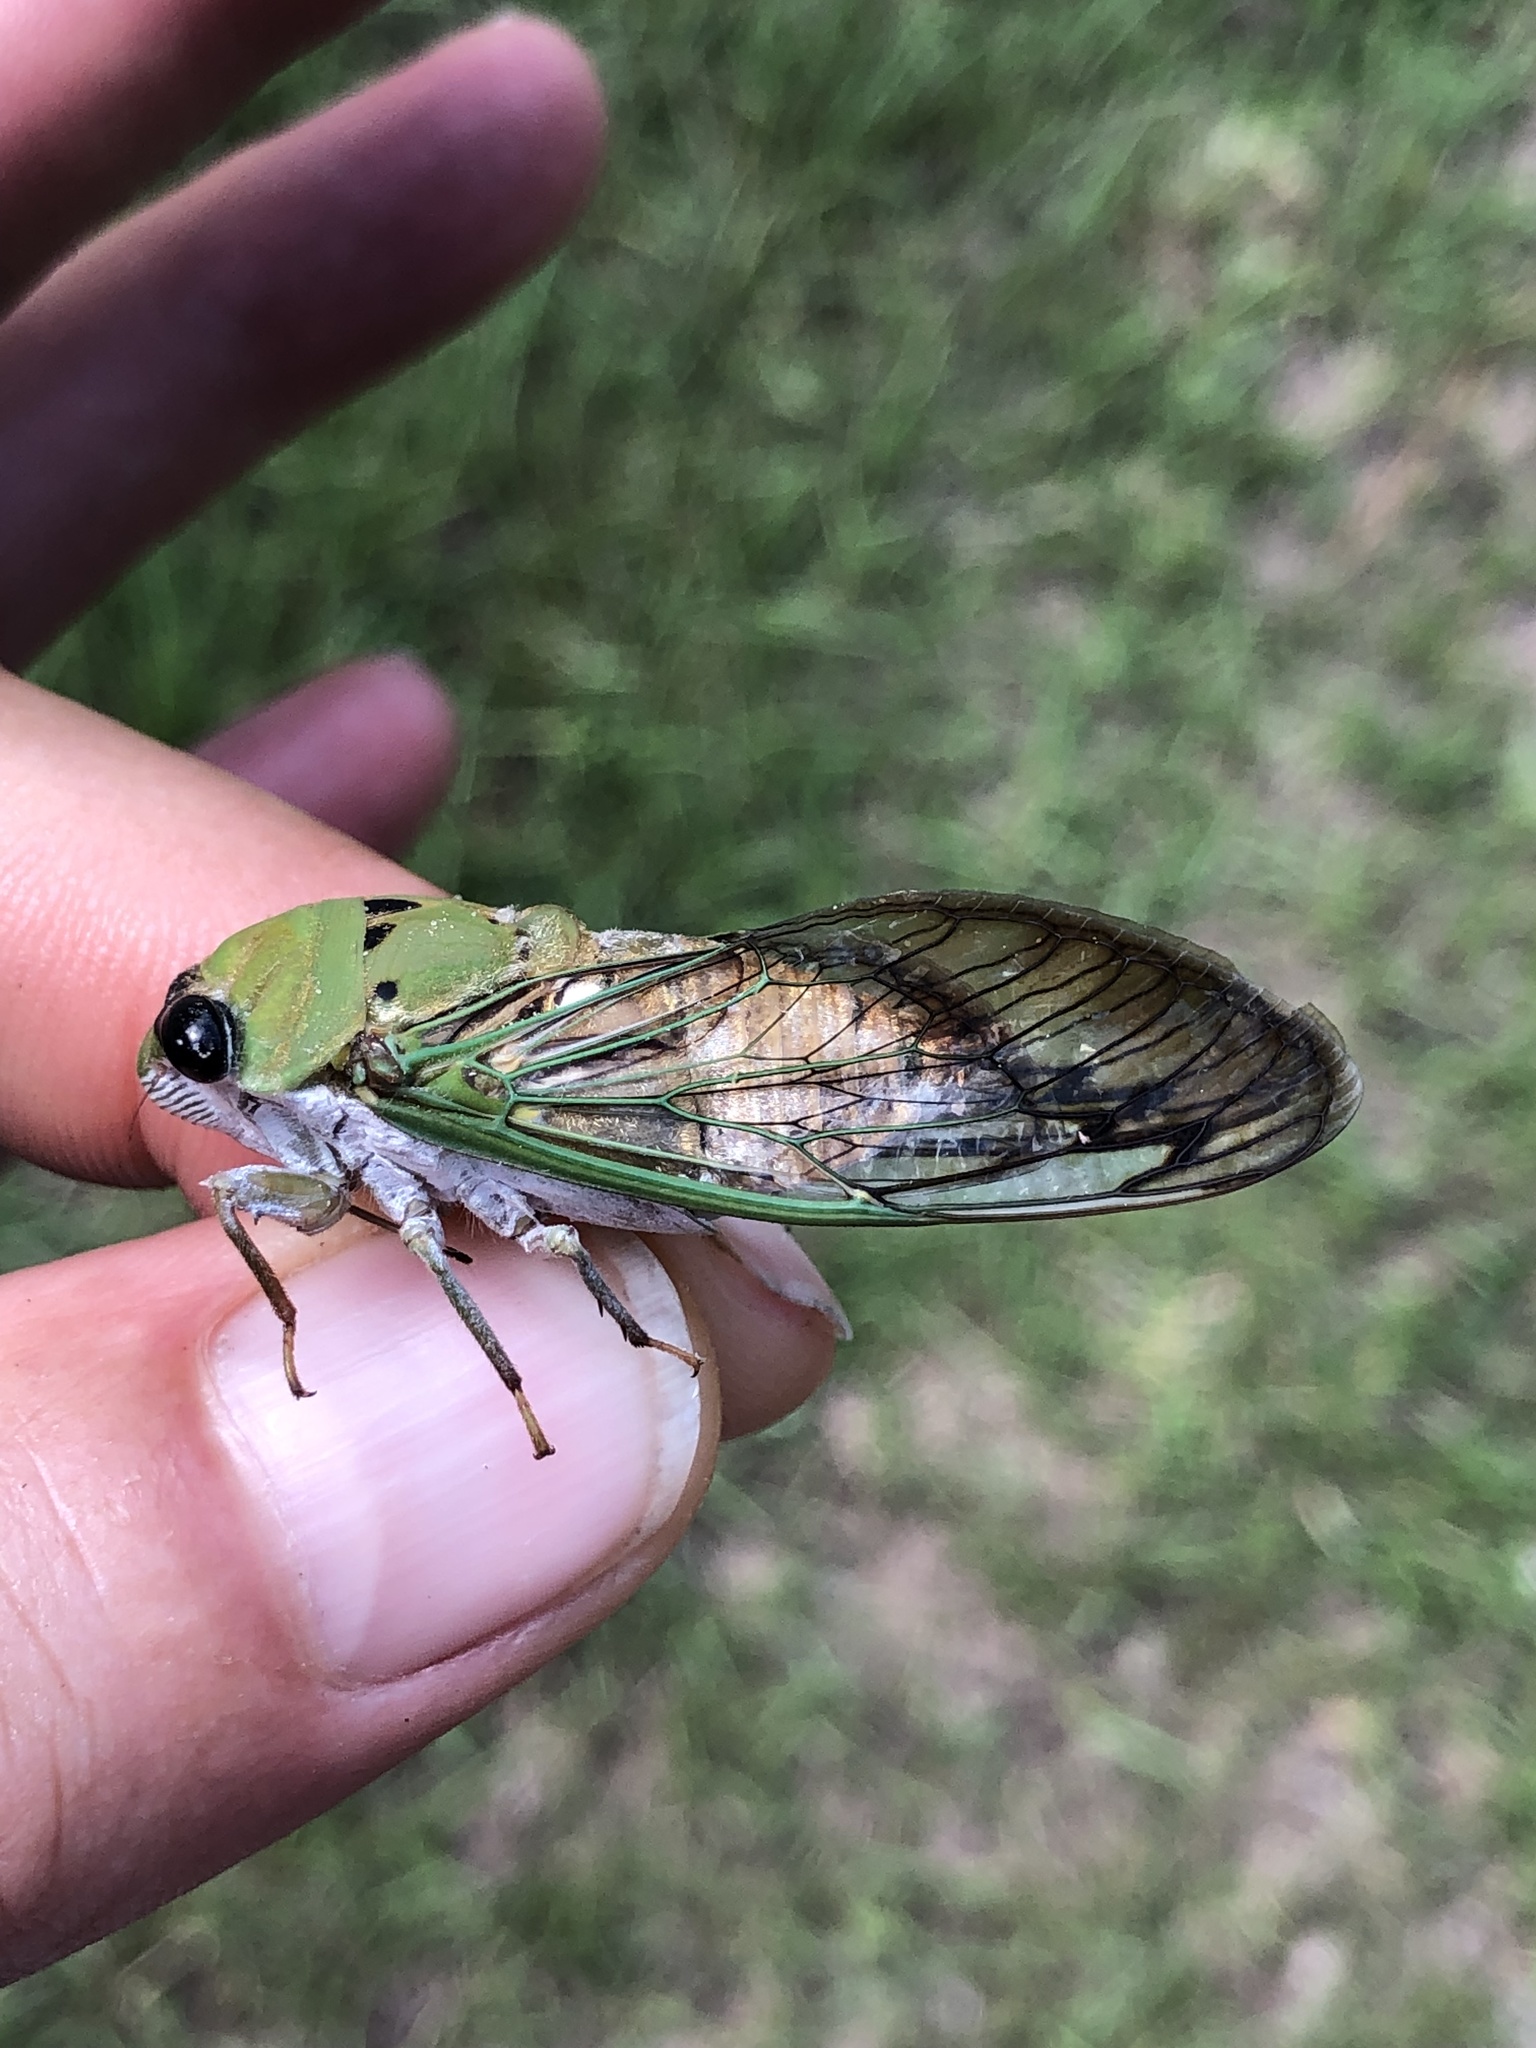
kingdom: Animalia
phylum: Arthropoda
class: Insecta
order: Hemiptera
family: Cicadidae
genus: Neotibicen
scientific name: Neotibicen superbus
